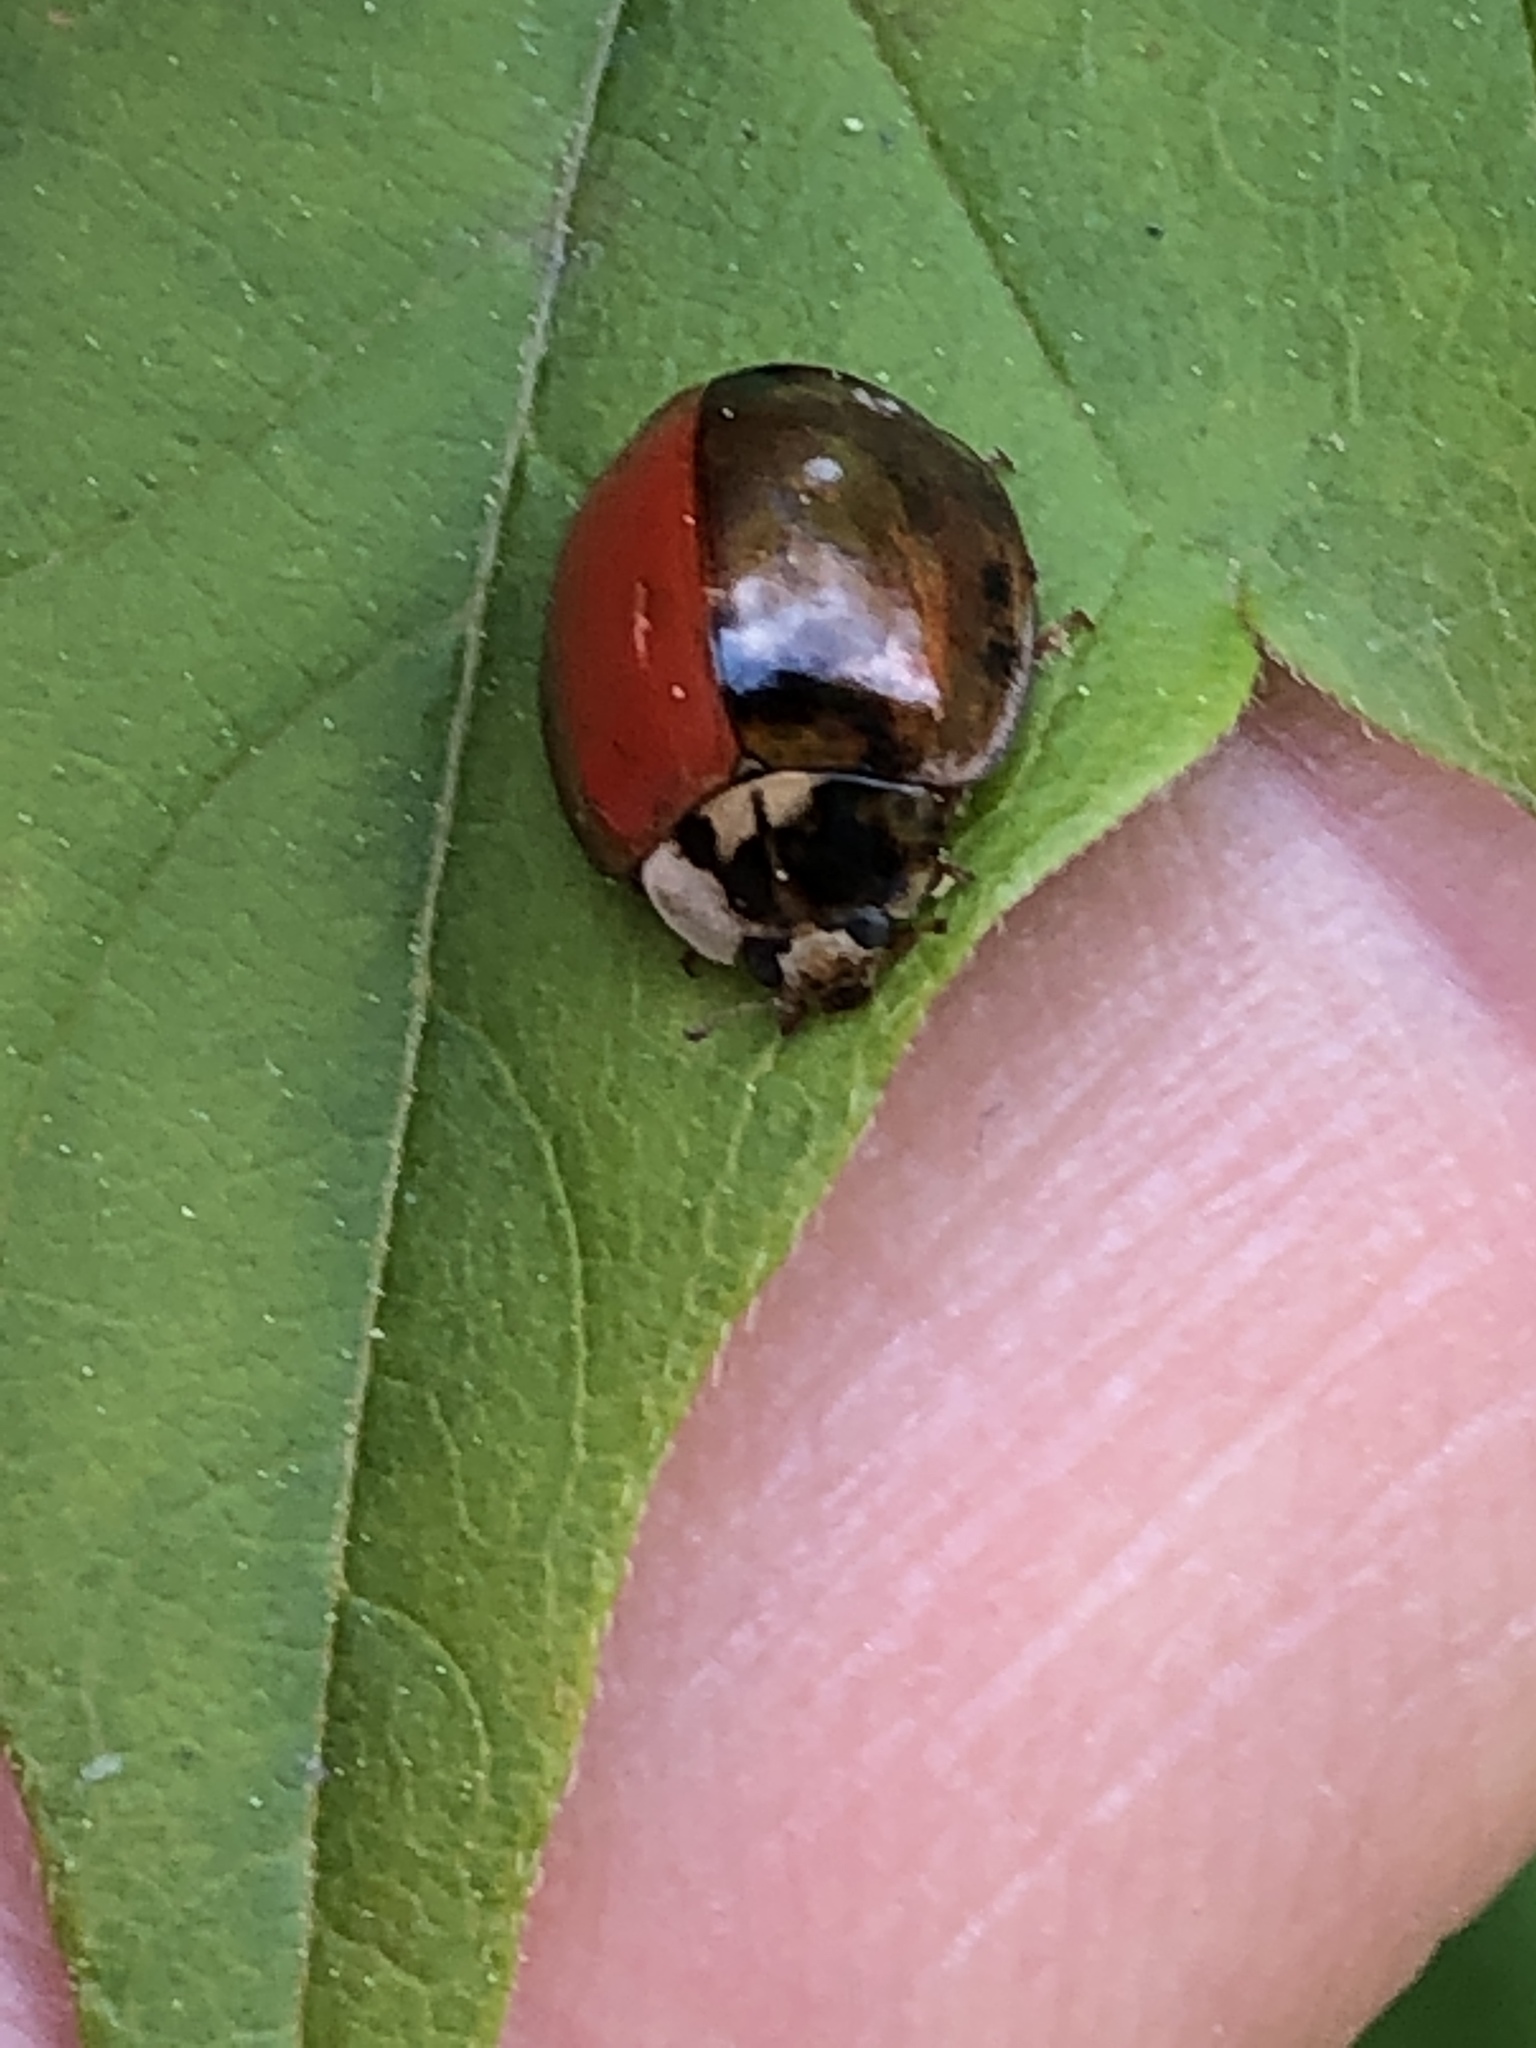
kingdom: Animalia
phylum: Arthropoda
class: Insecta
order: Coleoptera
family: Coccinellidae
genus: Harmonia
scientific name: Harmonia axyridis
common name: Harlequin ladybird
